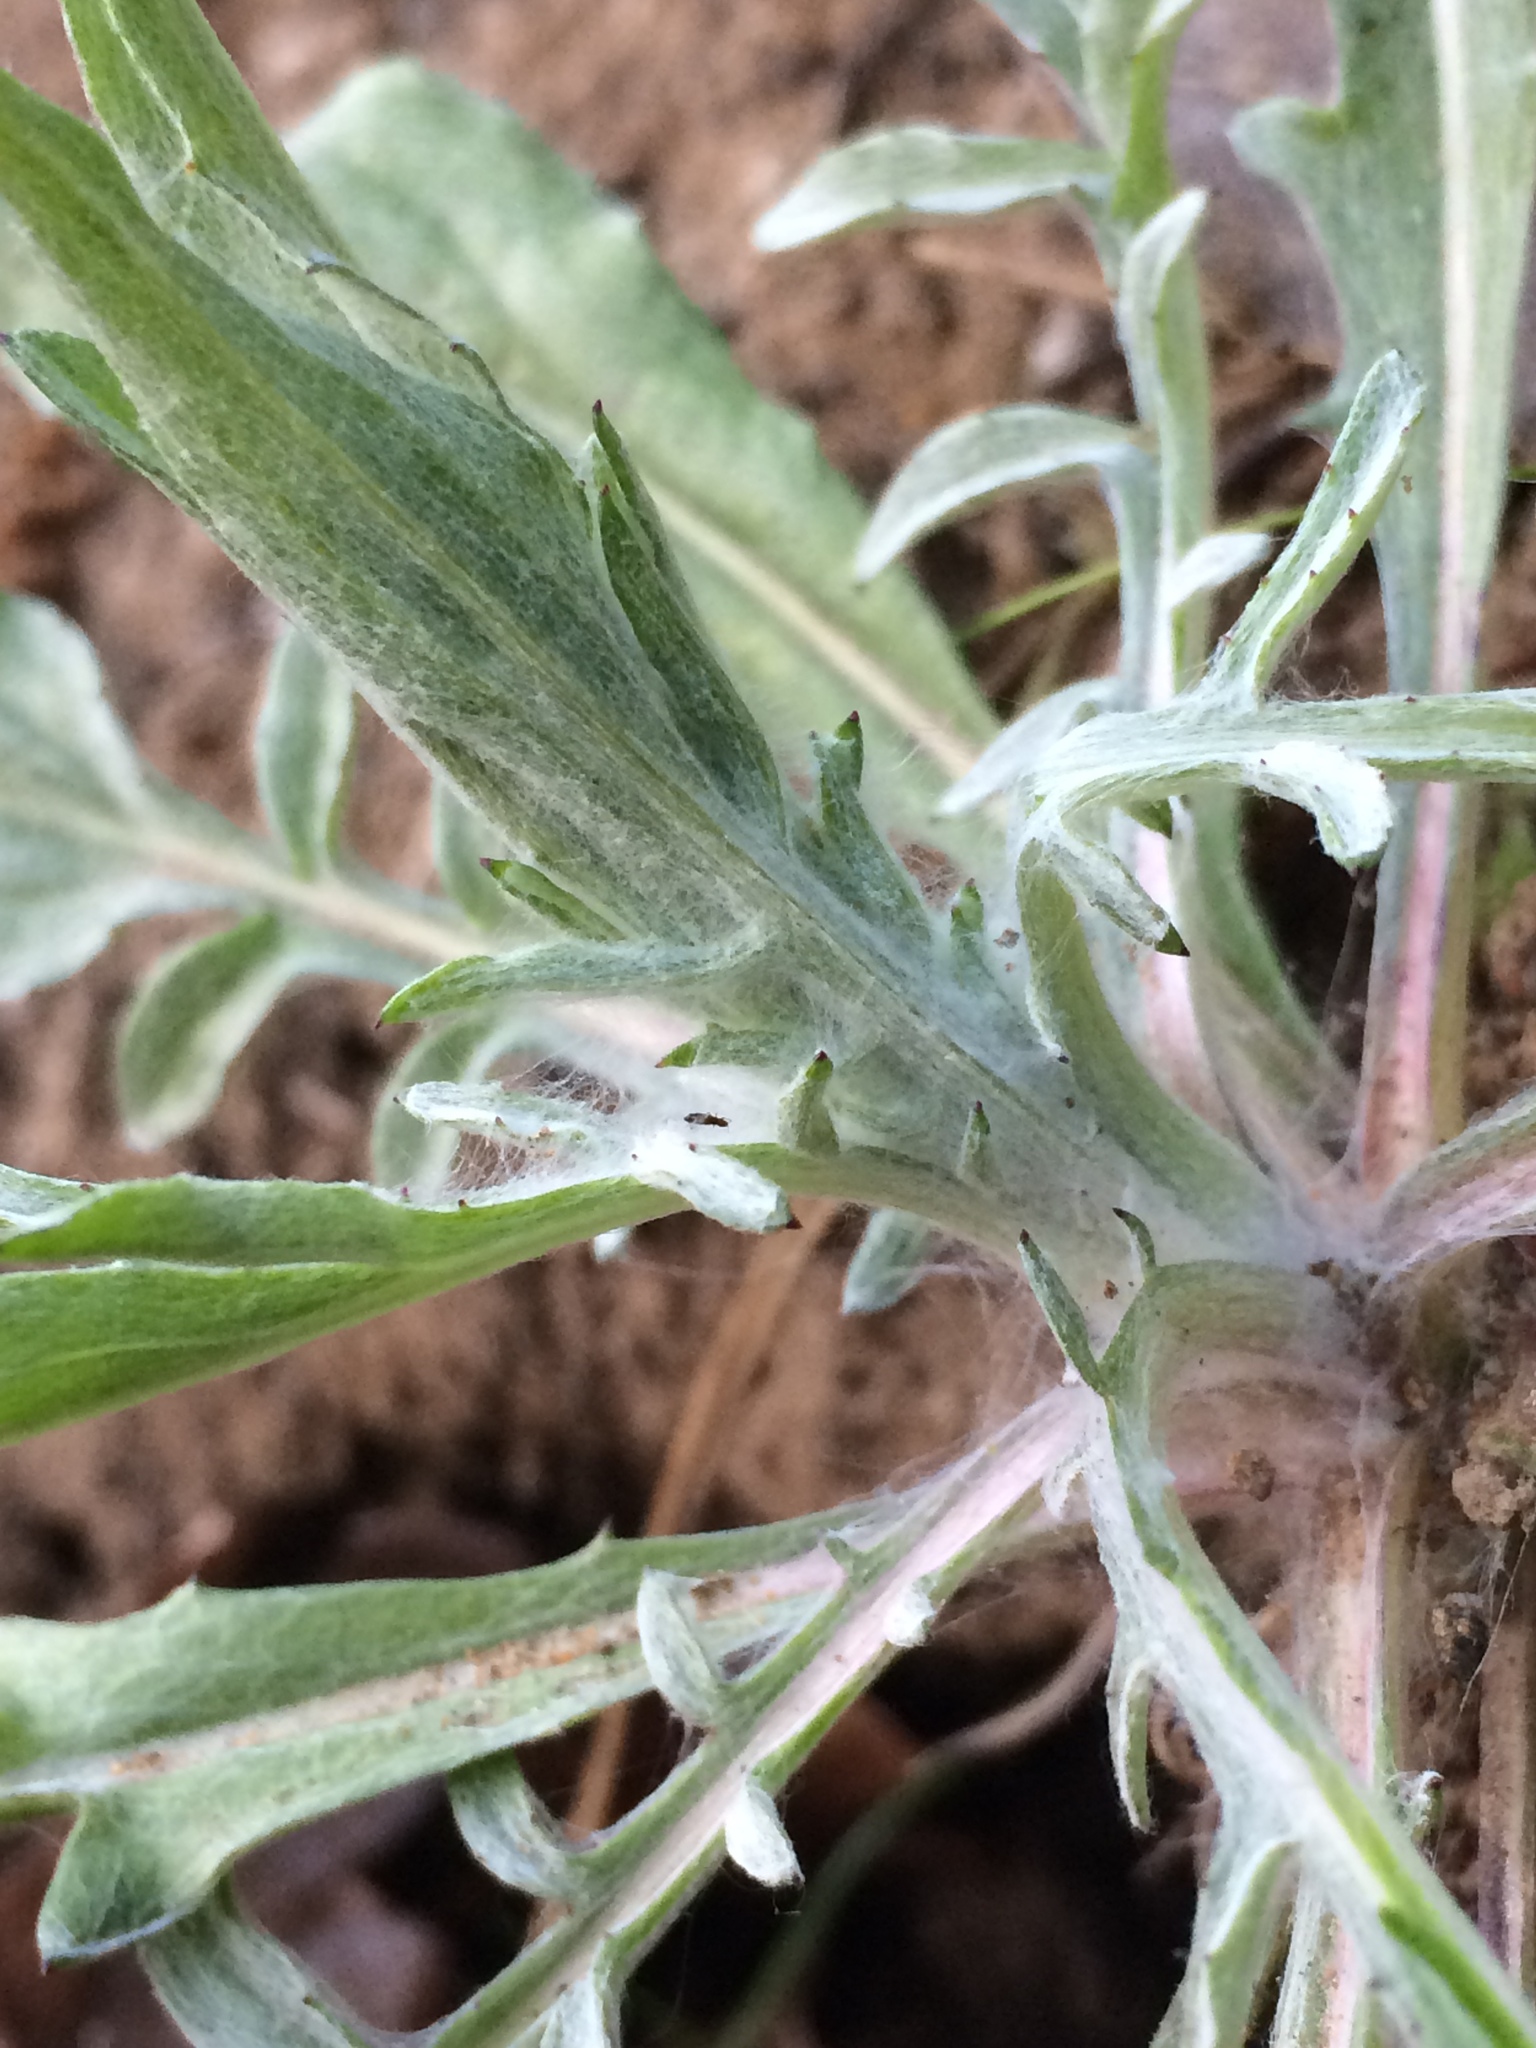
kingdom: Plantae
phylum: Tracheophyta
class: Magnoliopsida
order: Asterales
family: Asteraceae
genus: Agoseris
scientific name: Agoseris grandiflora
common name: Grassland agoseris
